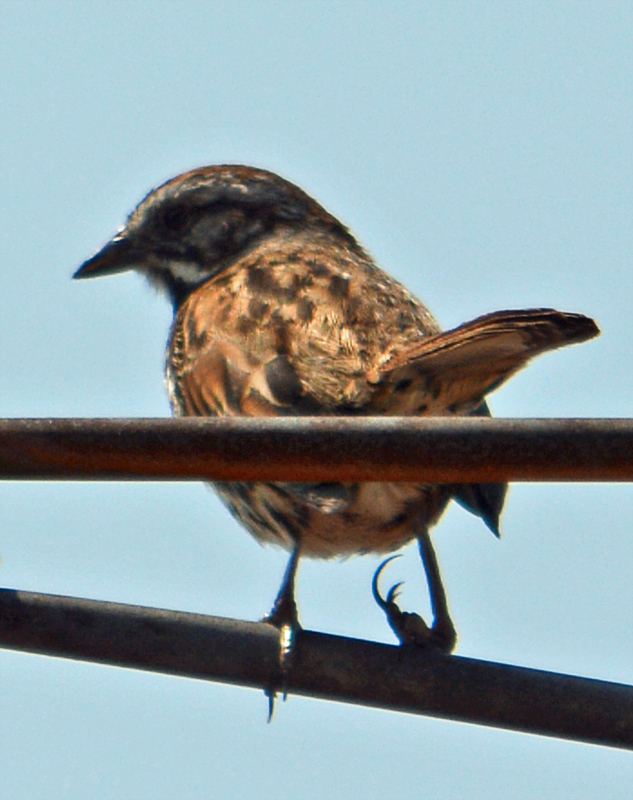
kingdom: Animalia
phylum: Chordata
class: Aves
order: Passeriformes
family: Passerellidae
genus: Melospiza
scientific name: Melospiza melodia
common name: Song sparrow
